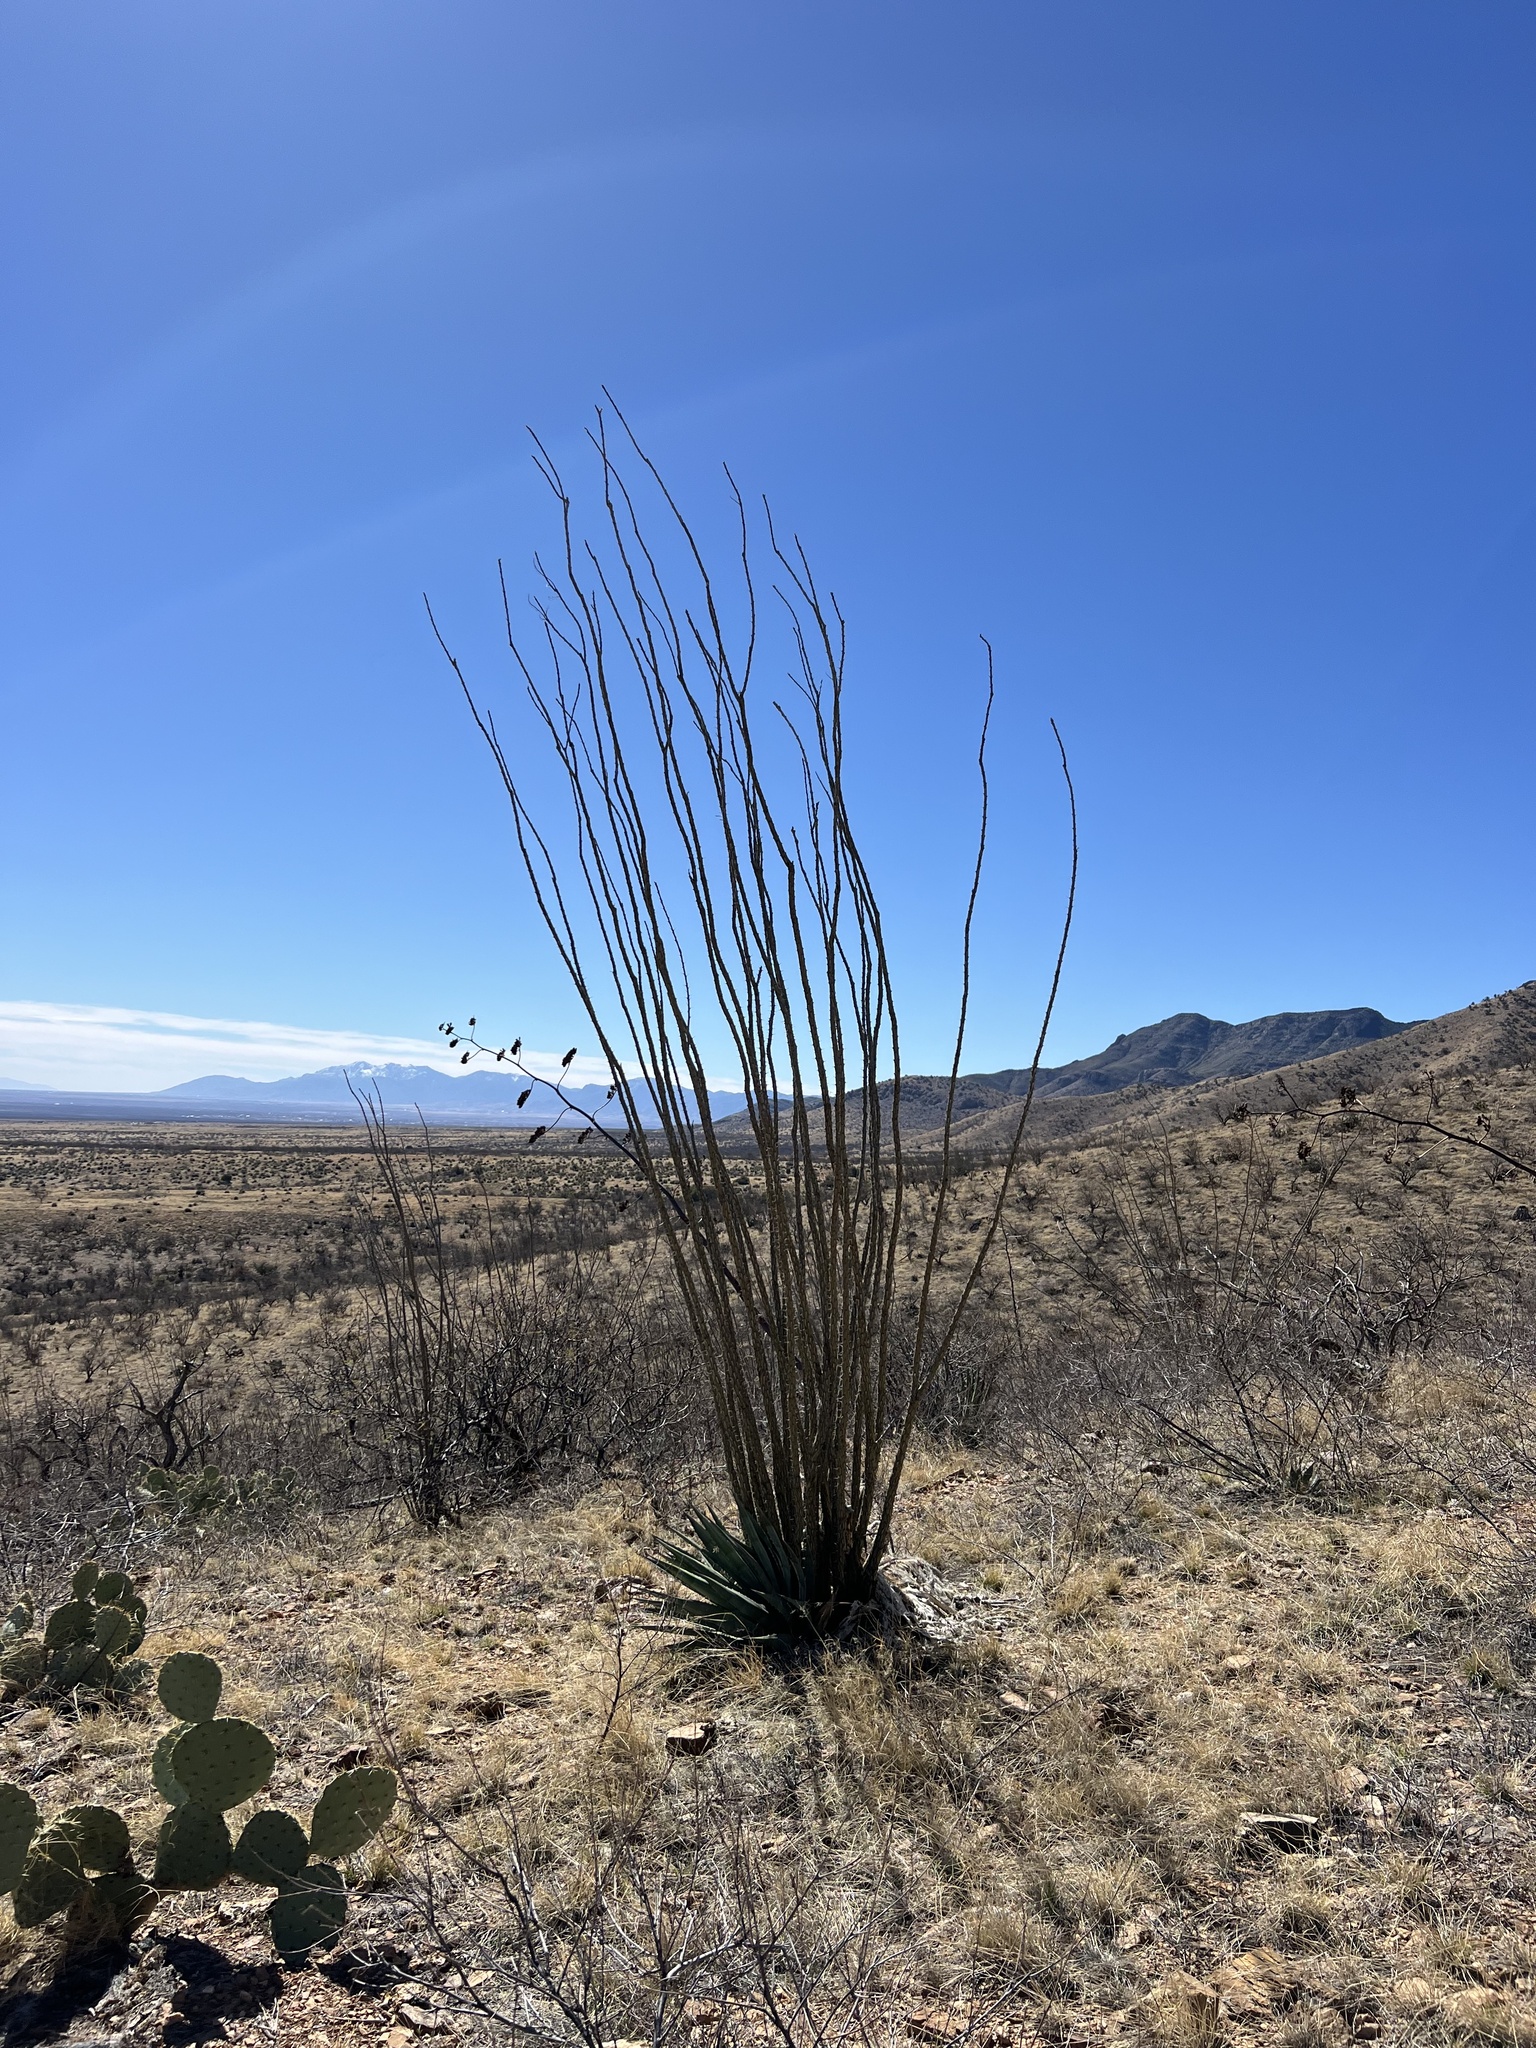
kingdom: Plantae
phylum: Tracheophyta
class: Magnoliopsida
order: Ericales
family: Fouquieriaceae
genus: Fouquieria
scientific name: Fouquieria splendens
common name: Vine-cactus
